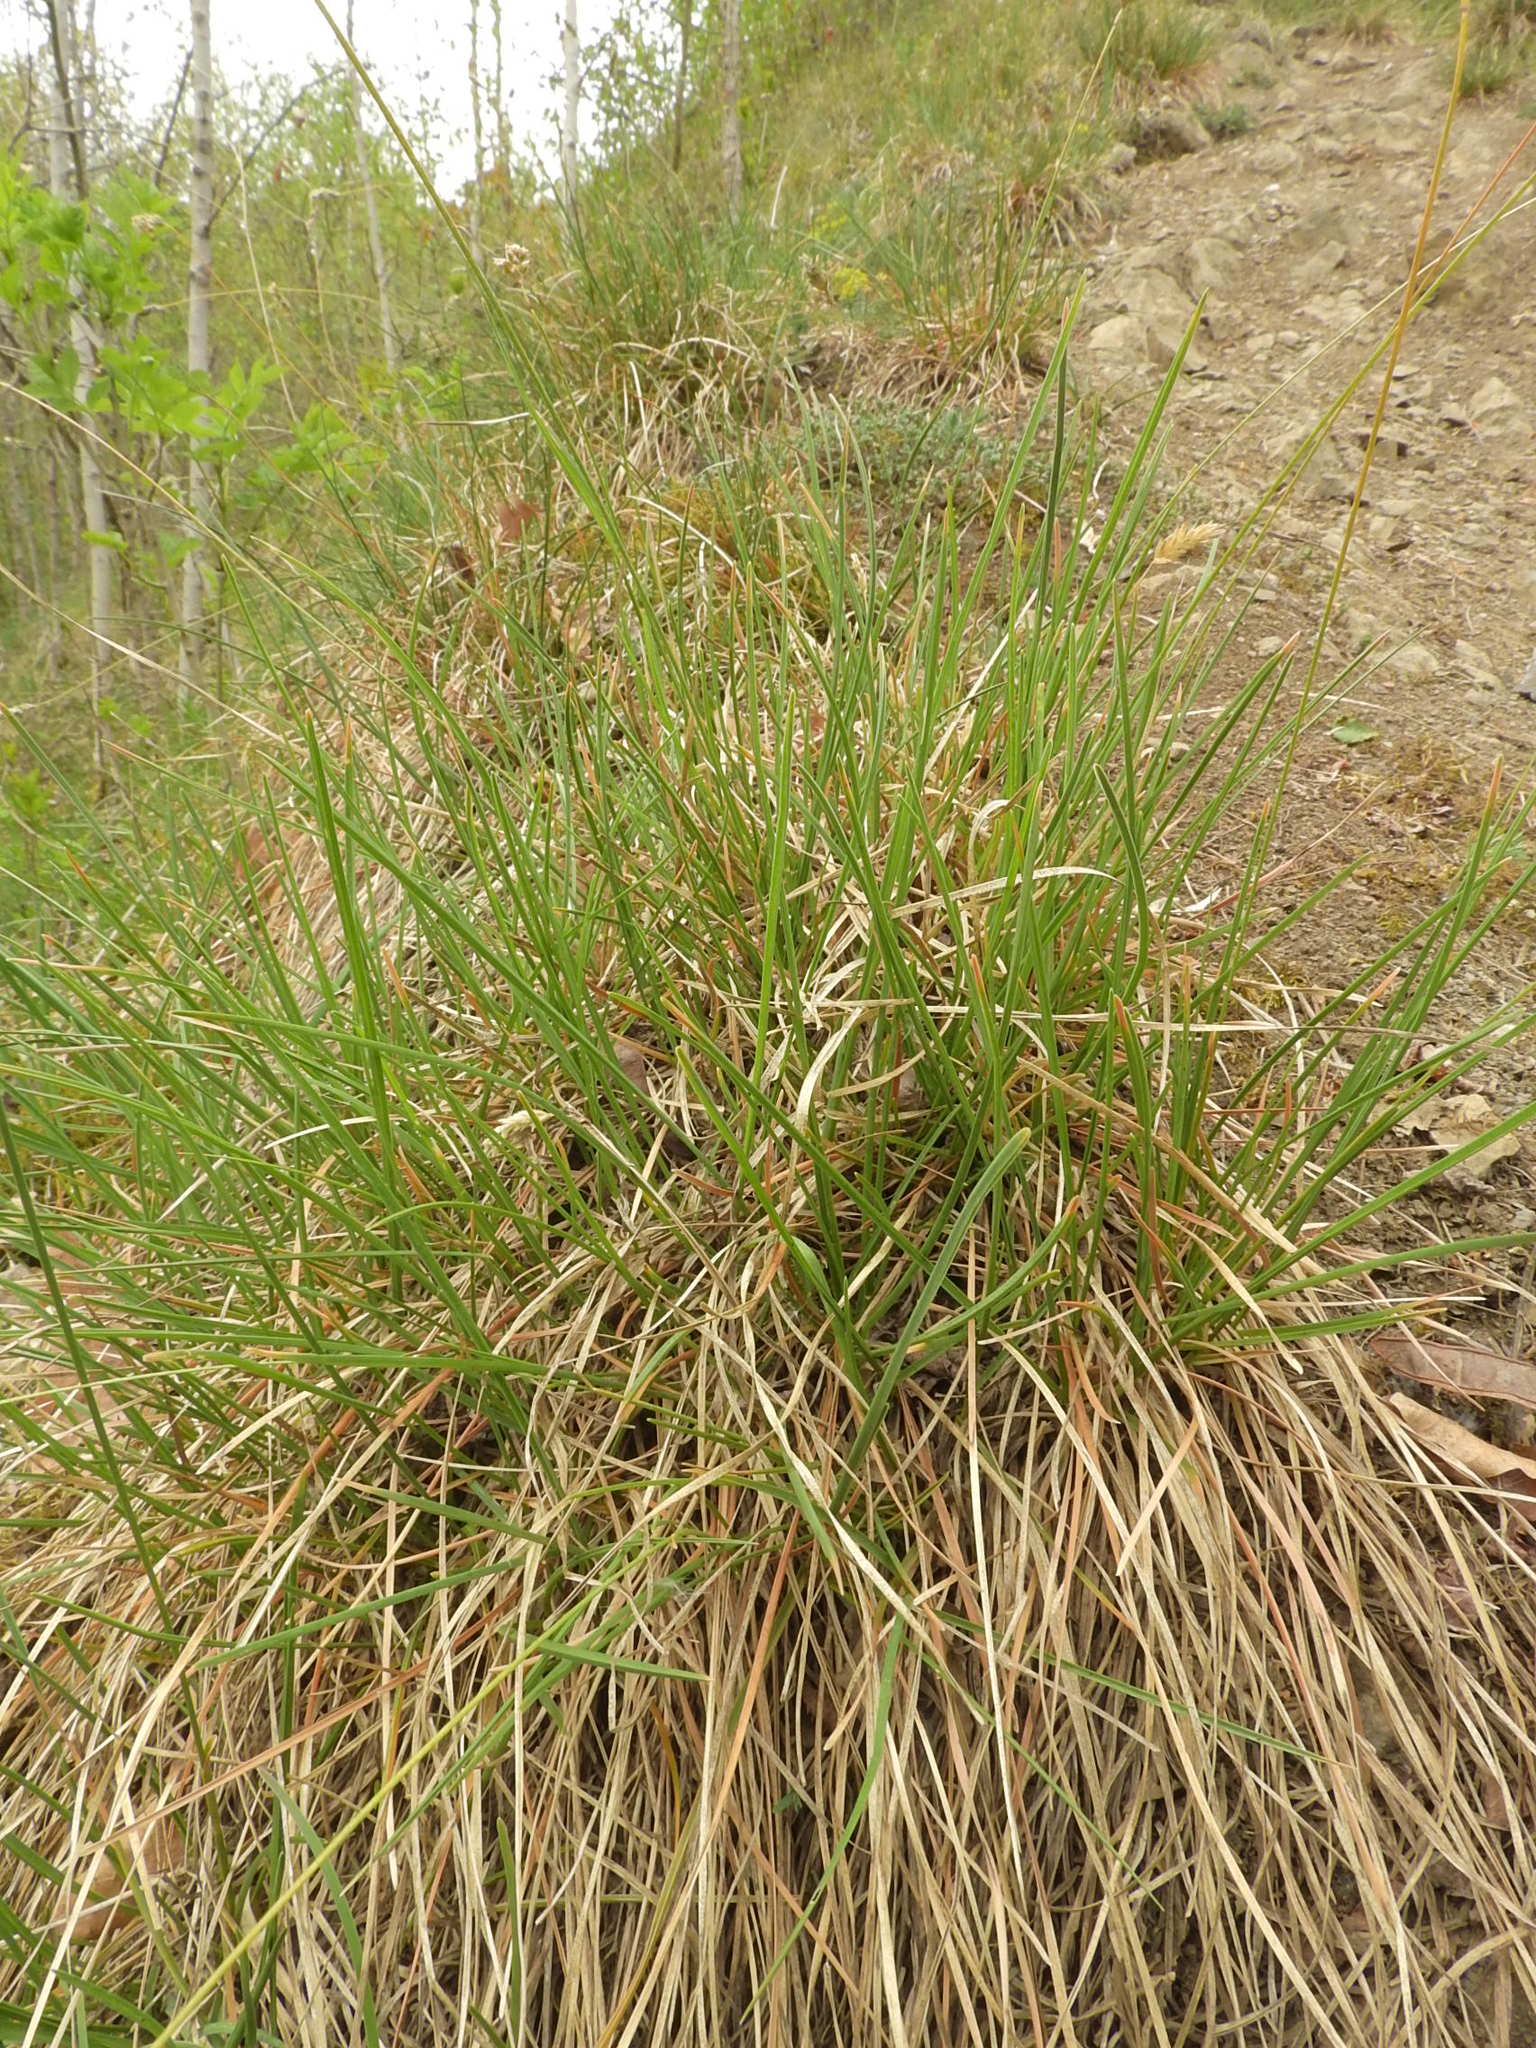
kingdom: Plantae
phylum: Tracheophyta
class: Liliopsida
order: Poales
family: Poaceae
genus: Sesleria
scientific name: Sesleria caerulea
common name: Blue moor-grass
